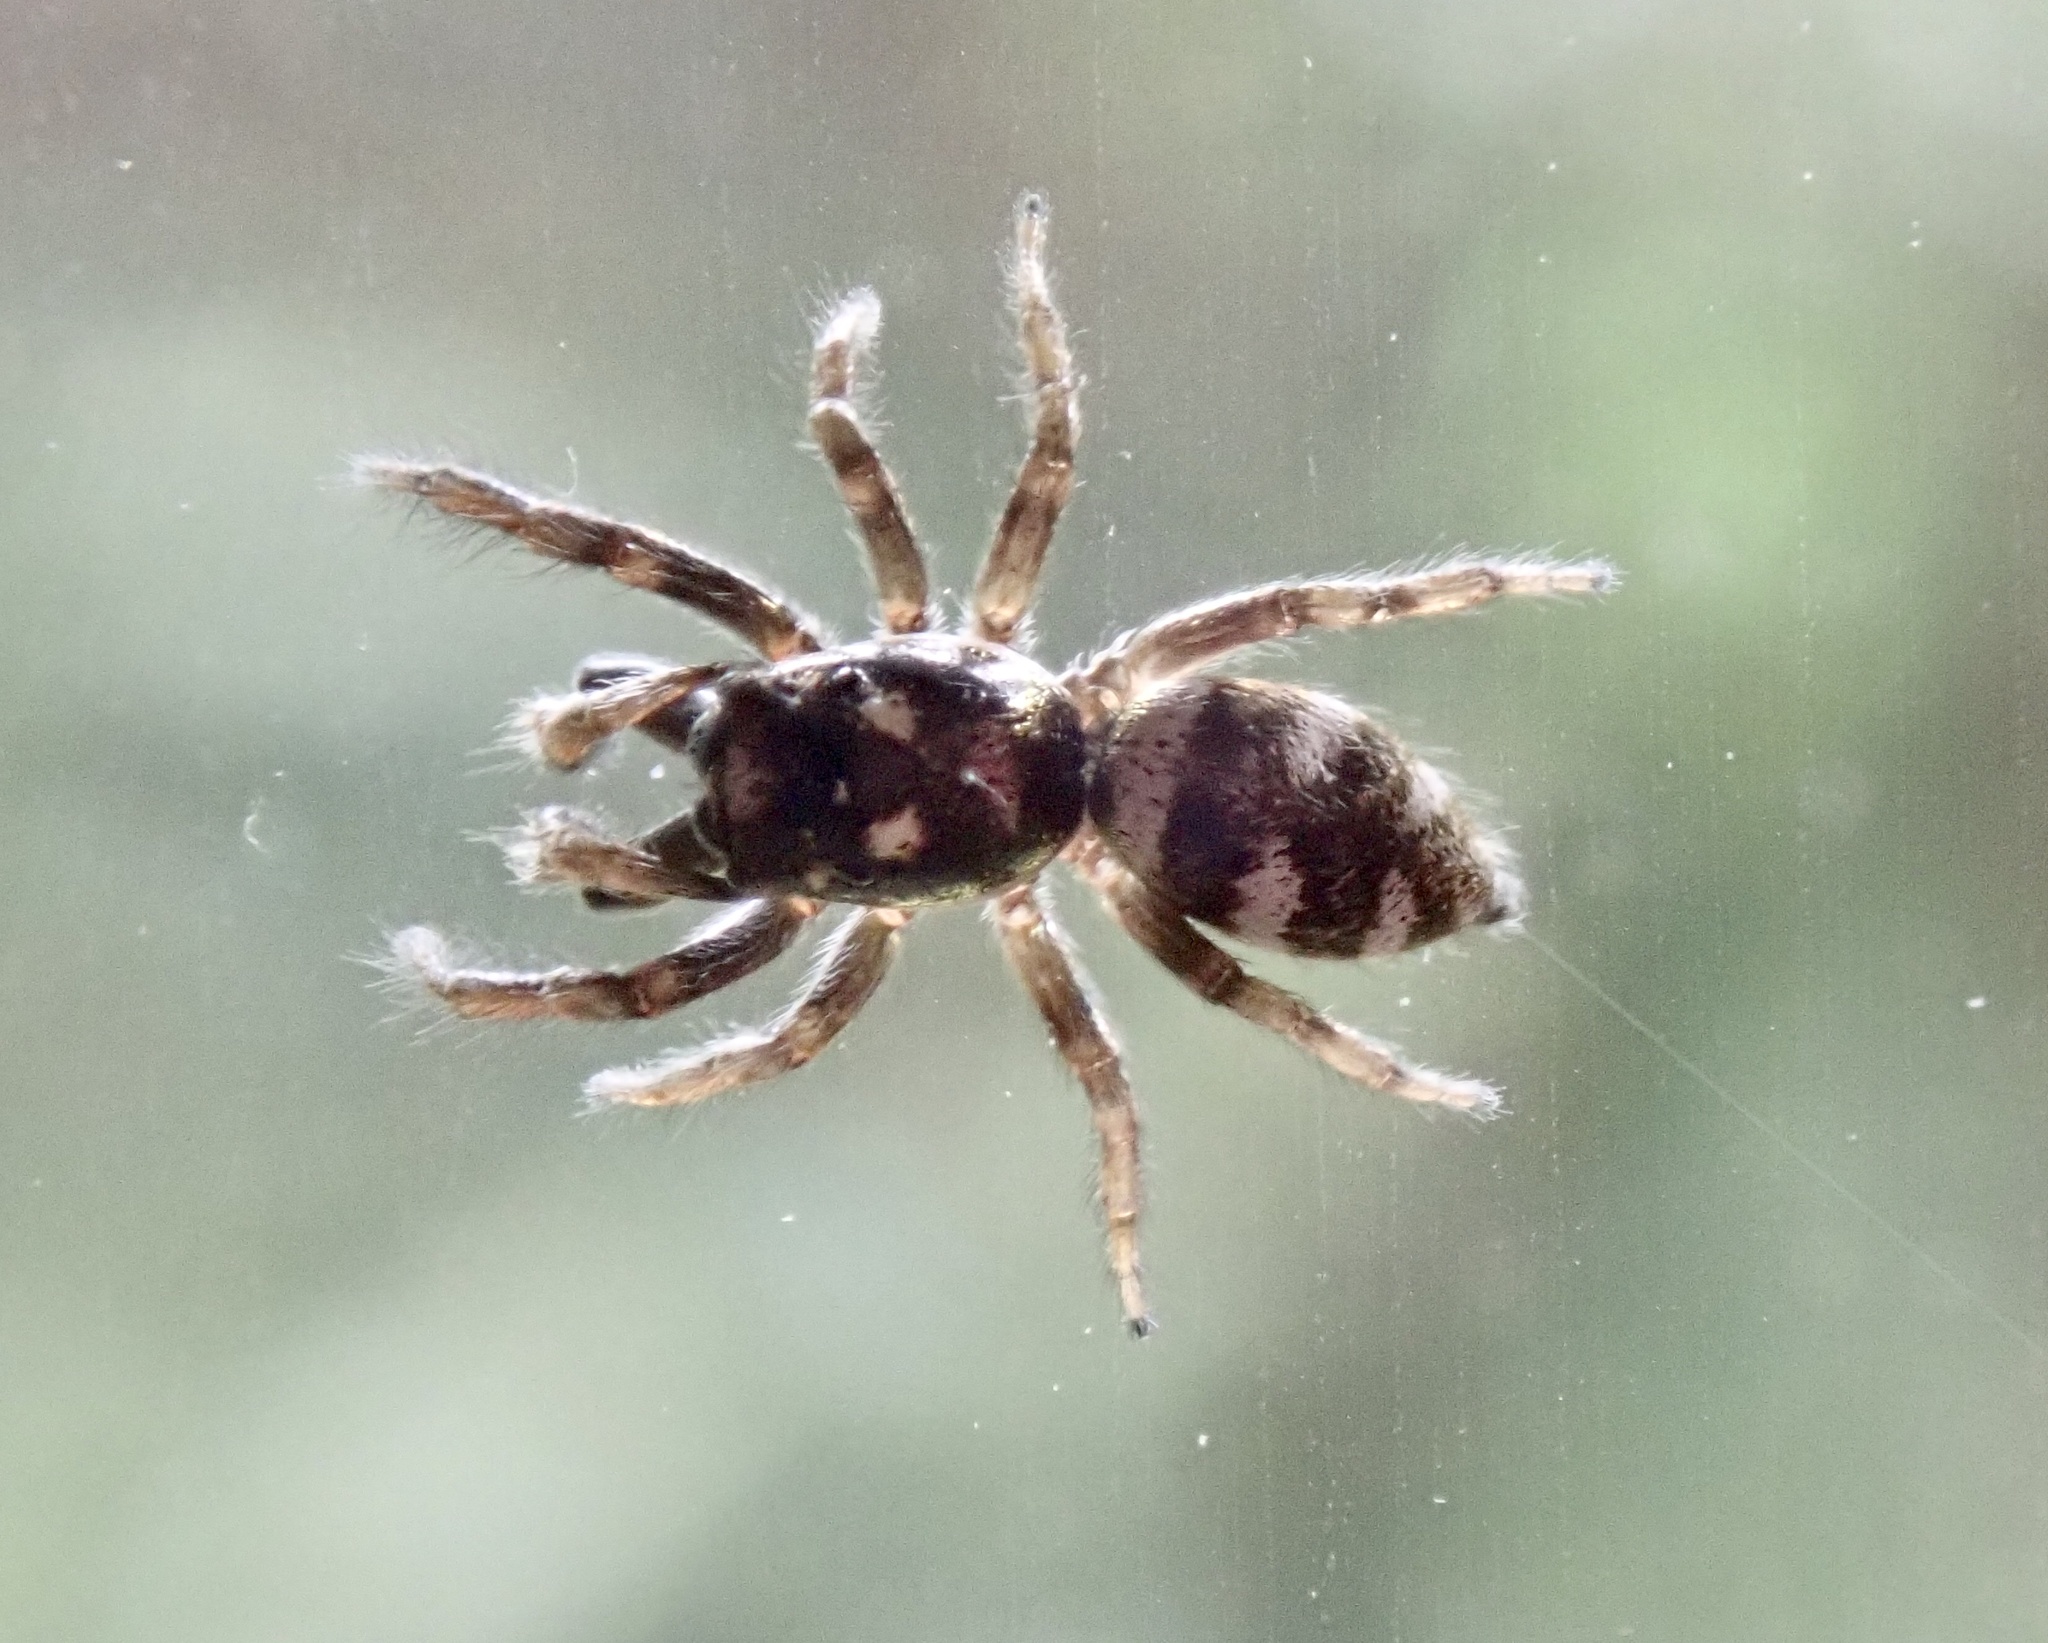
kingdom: Animalia
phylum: Arthropoda
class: Arachnida
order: Araneae
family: Salticidae
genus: Salticus
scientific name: Salticus scenicus
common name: Zebra jumper
